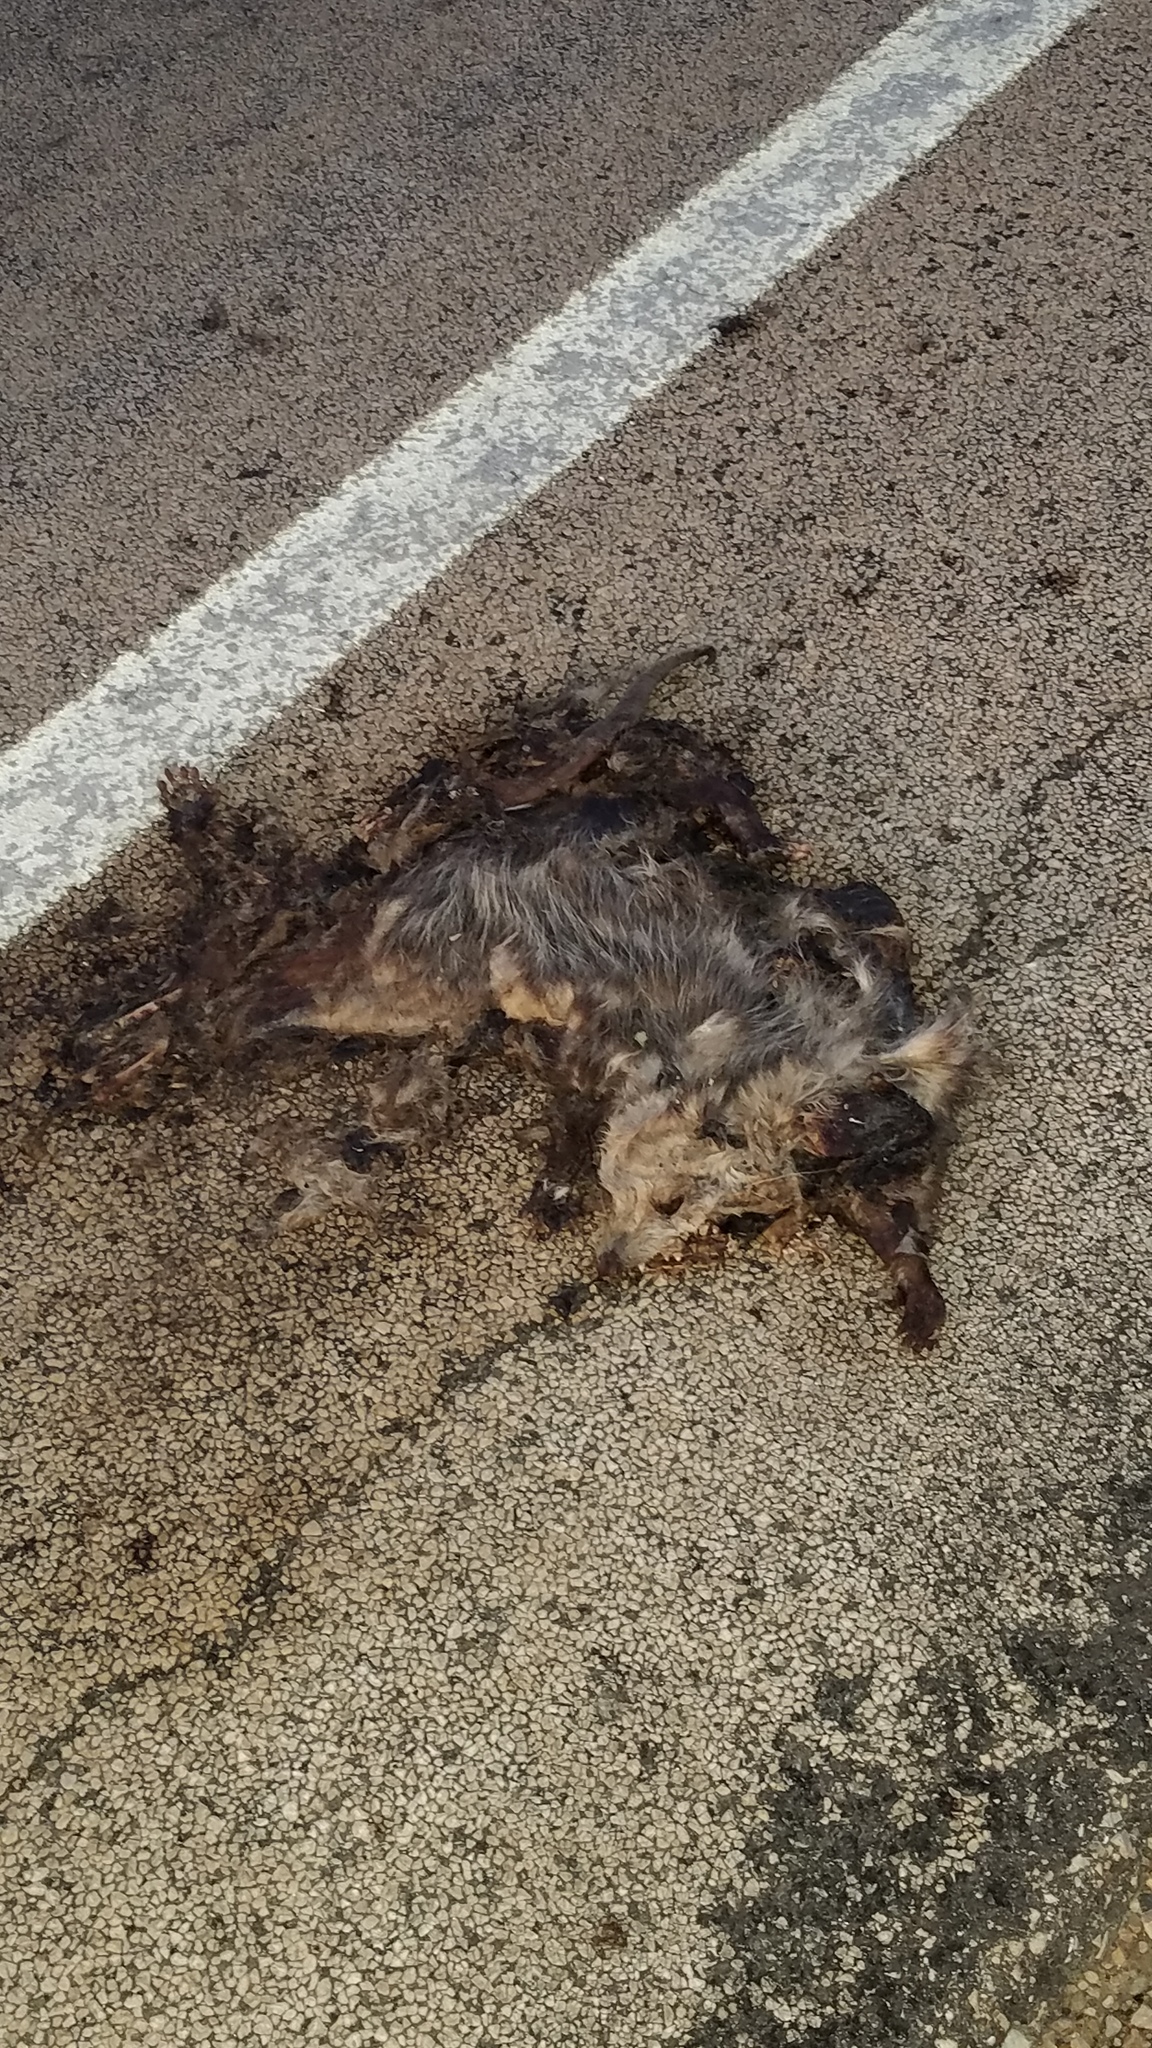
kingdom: Animalia
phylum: Chordata
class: Mammalia
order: Didelphimorphia
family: Didelphidae
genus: Didelphis
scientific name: Didelphis virginiana
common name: Virginia opossum
